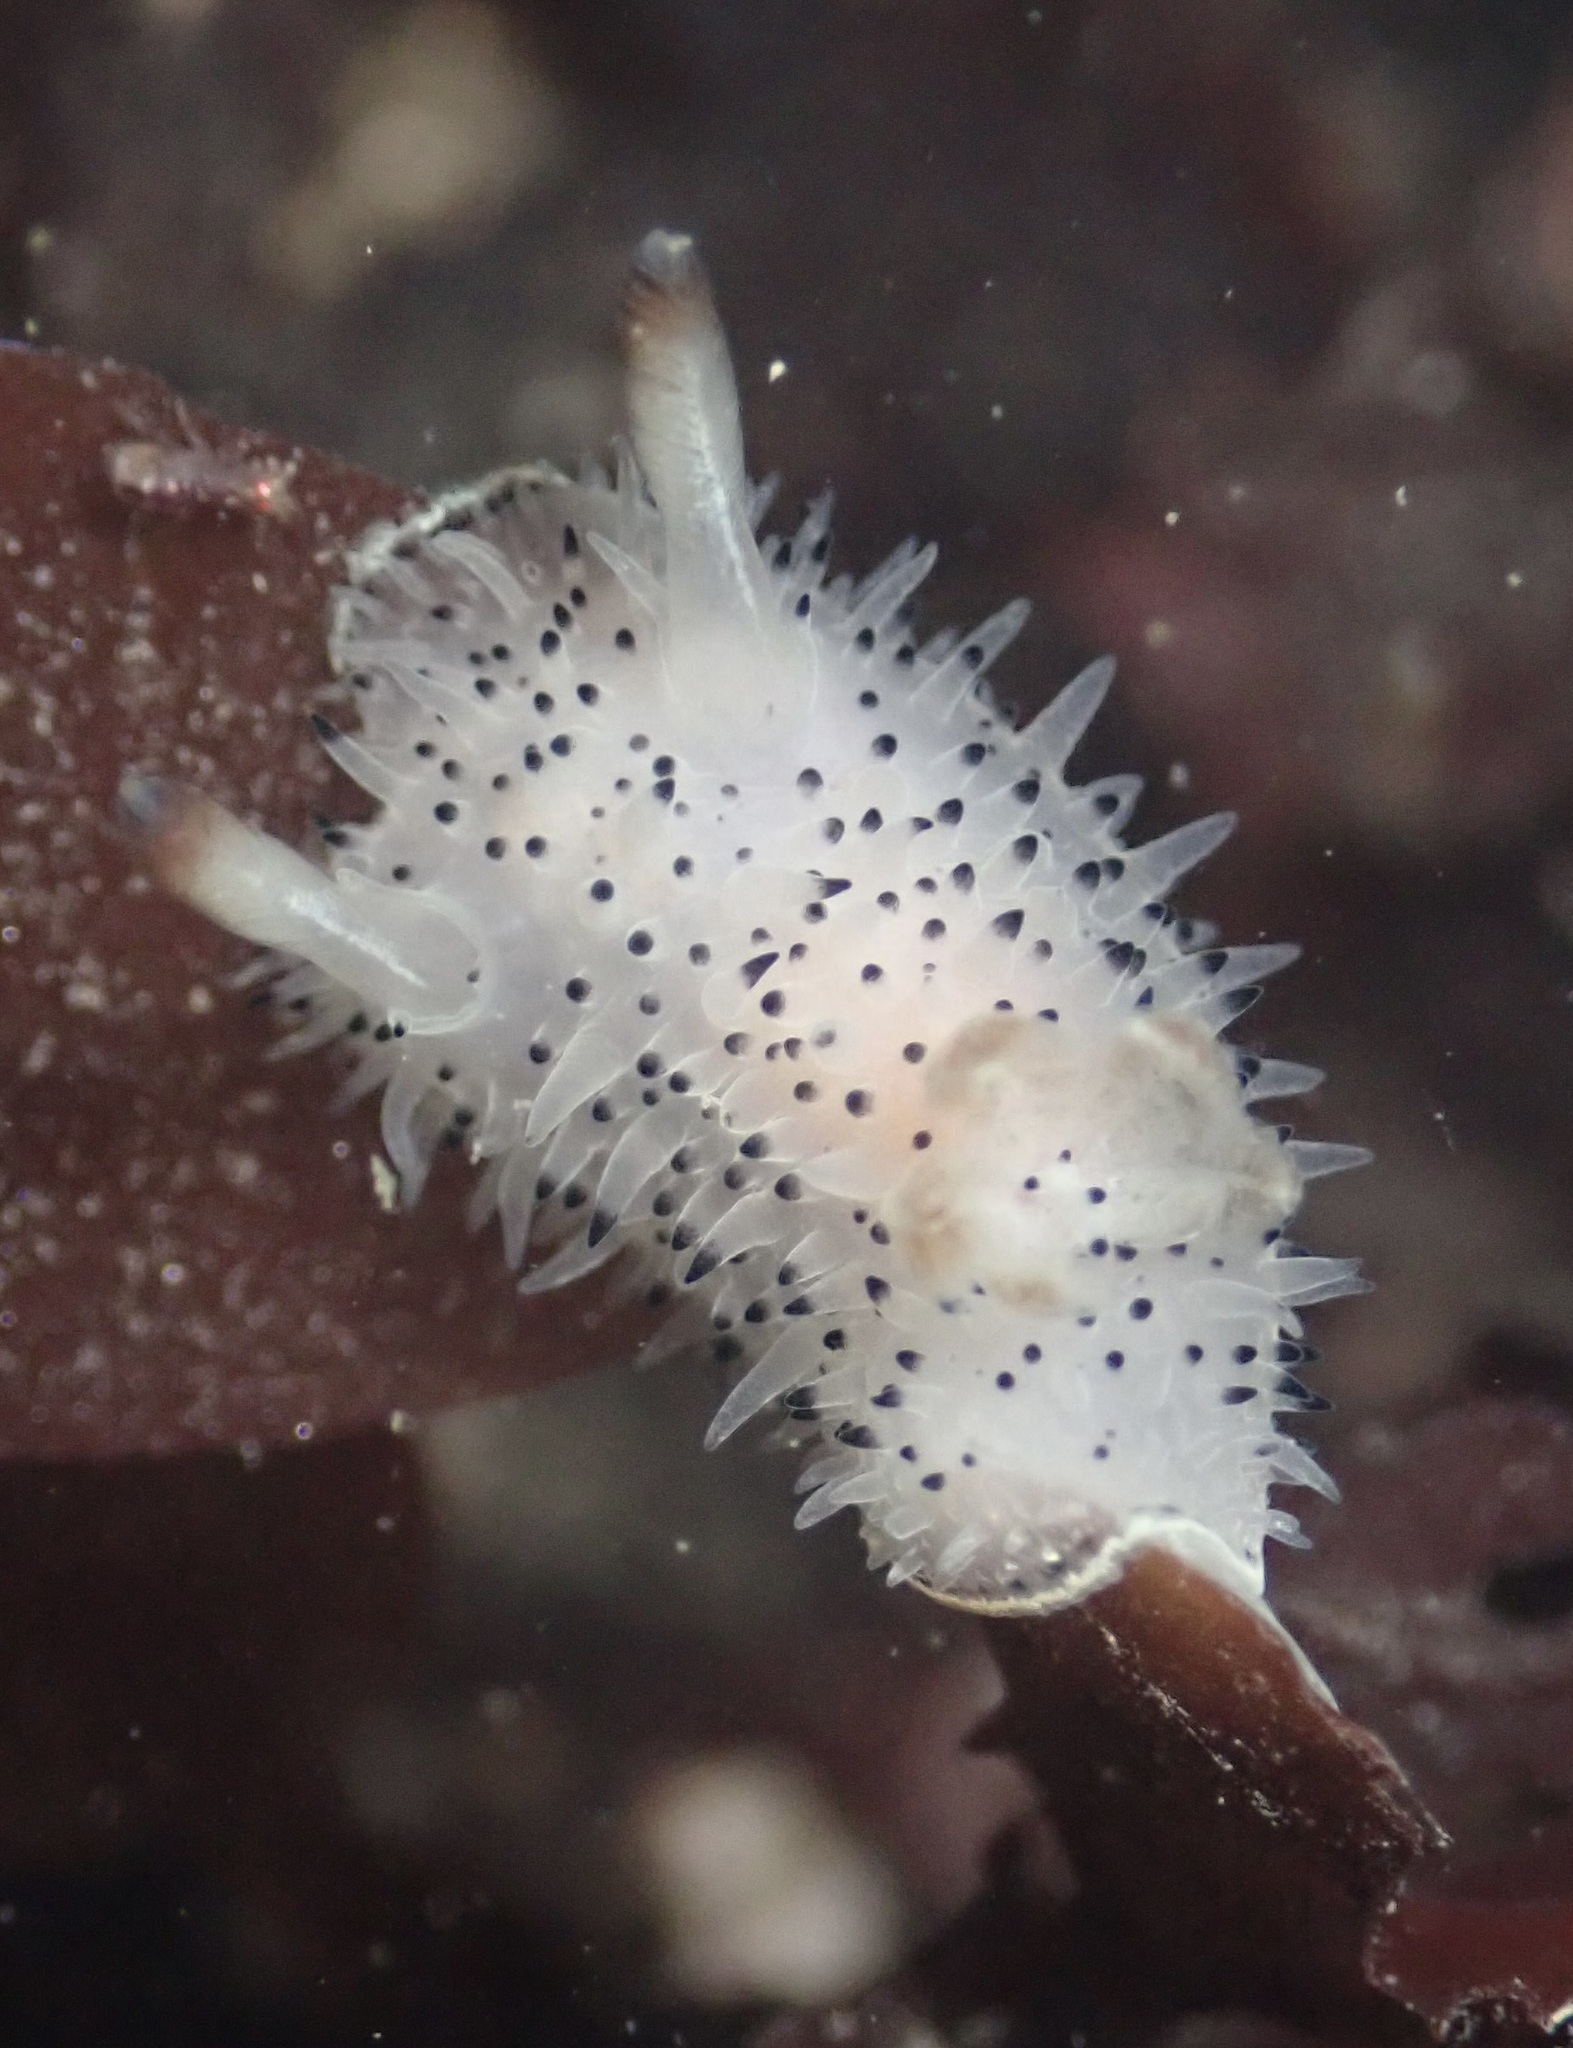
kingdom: Animalia
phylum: Mollusca
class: Gastropoda
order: Nudibranchia
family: Onchidorididae
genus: Acanthodoris
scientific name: Acanthodoris rhodoceras
